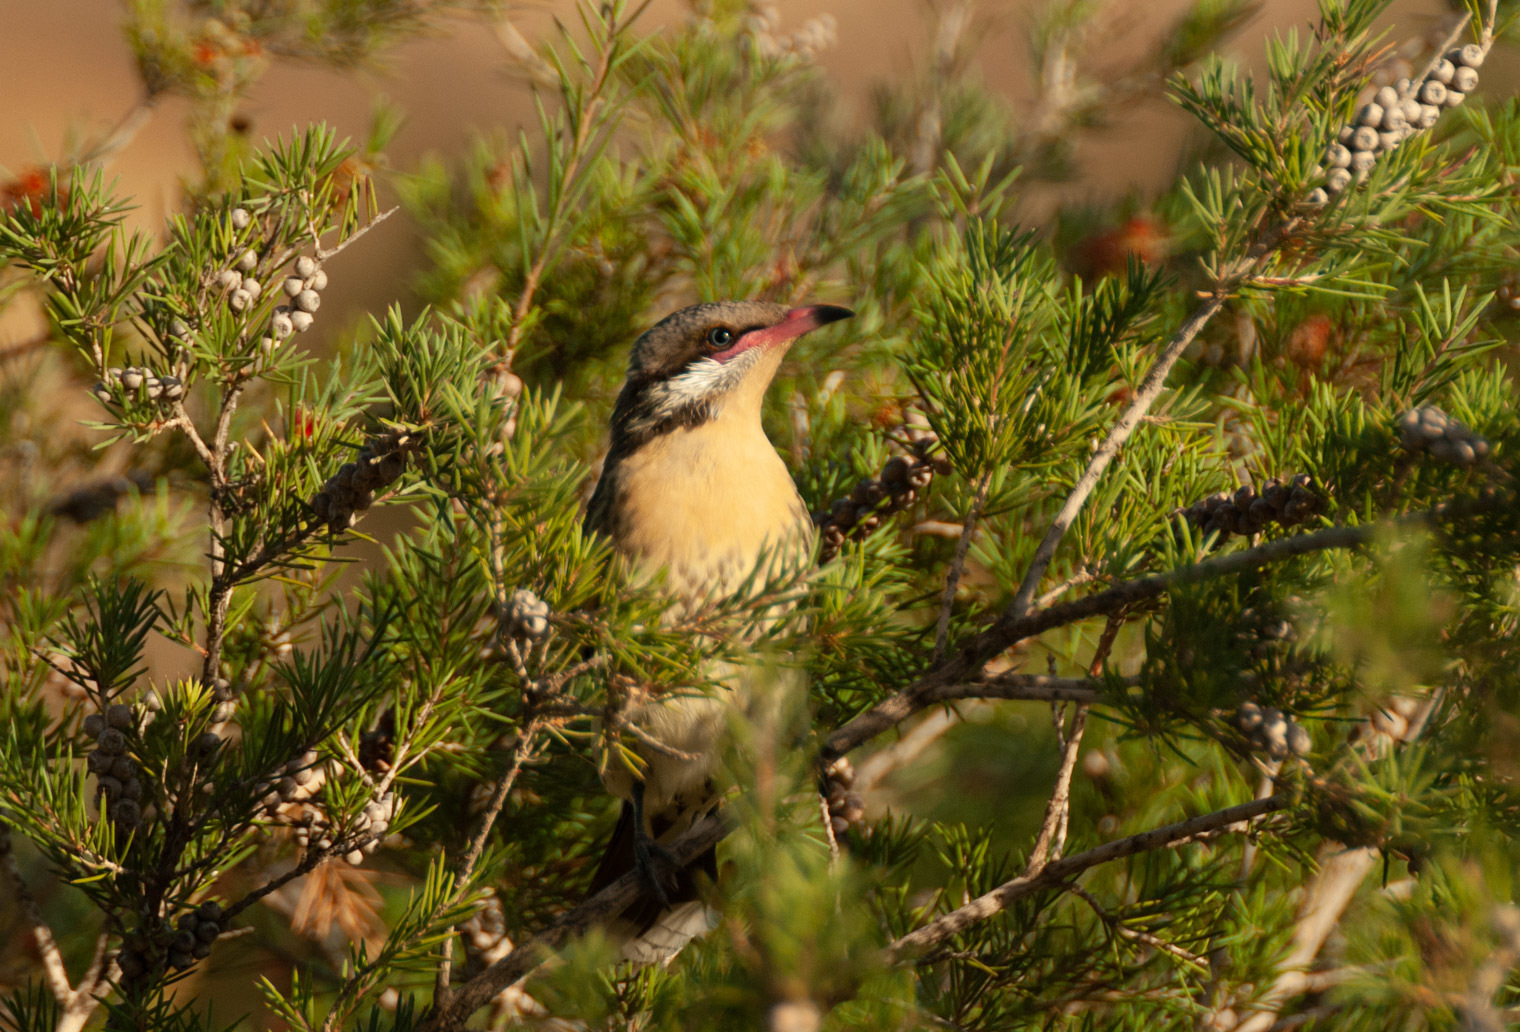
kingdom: Animalia
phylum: Chordata
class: Aves
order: Passeriformes
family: Meliphagidae
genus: Acanthagenys
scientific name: Acanthagenys rufogularis
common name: Spiny-cheeked honeyeater
